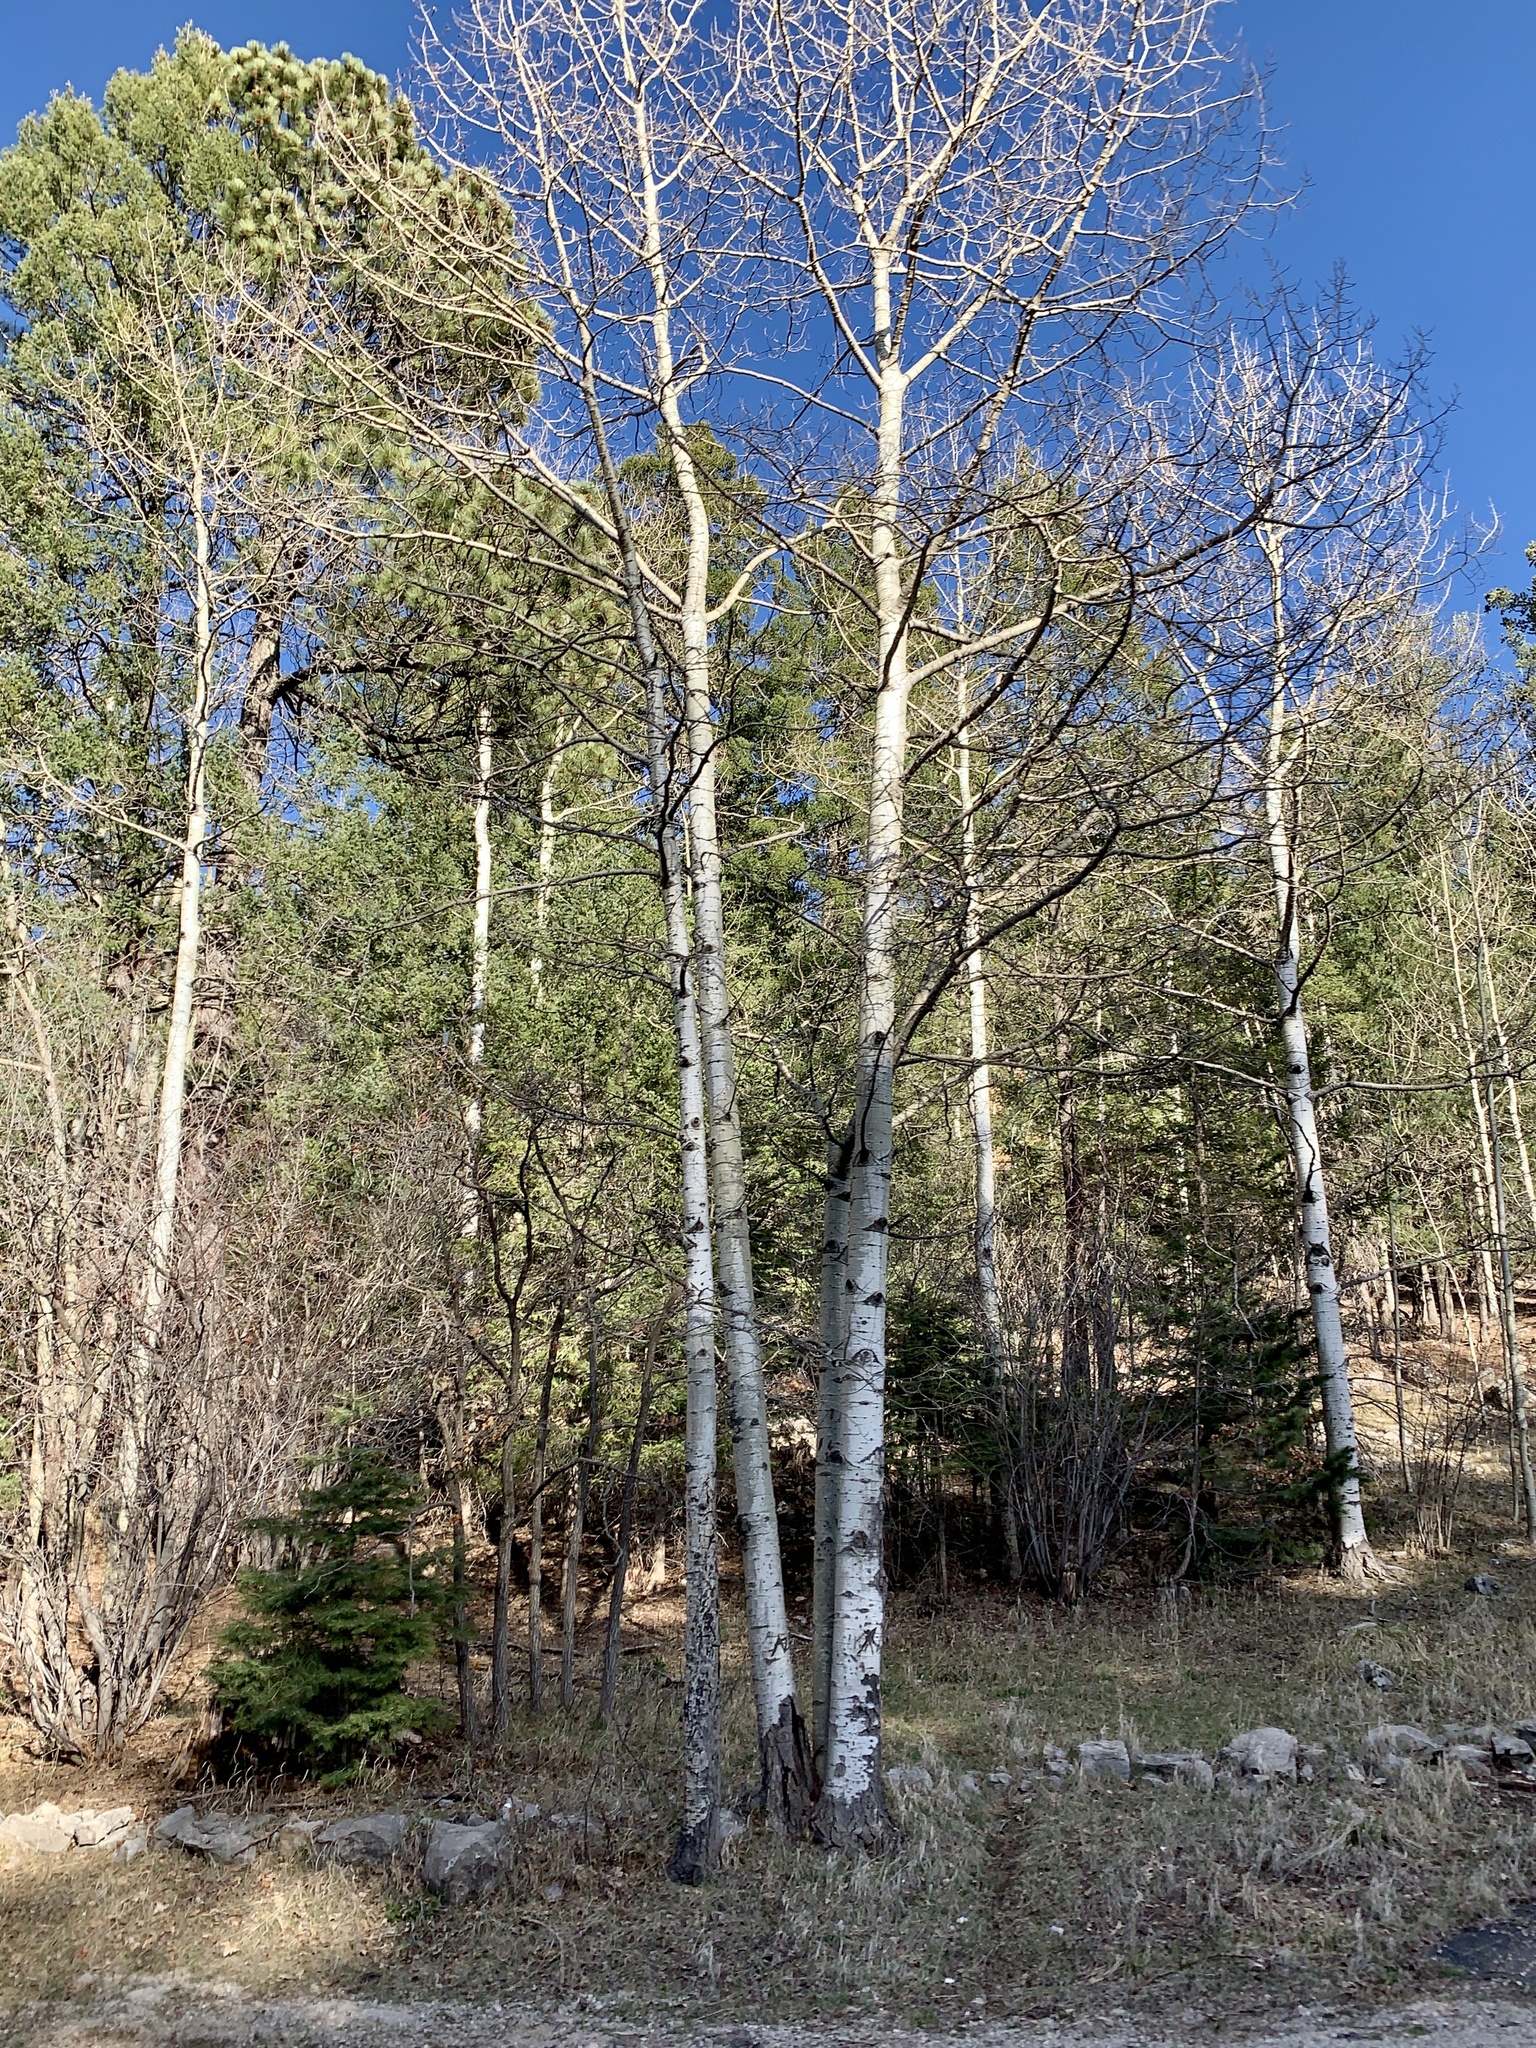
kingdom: Plantae
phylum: Tracheophyta
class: Magnoliopsida
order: Malpighiales
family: Salicaceae
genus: Populus
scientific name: Populus tremuloides
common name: Quaking aspen
